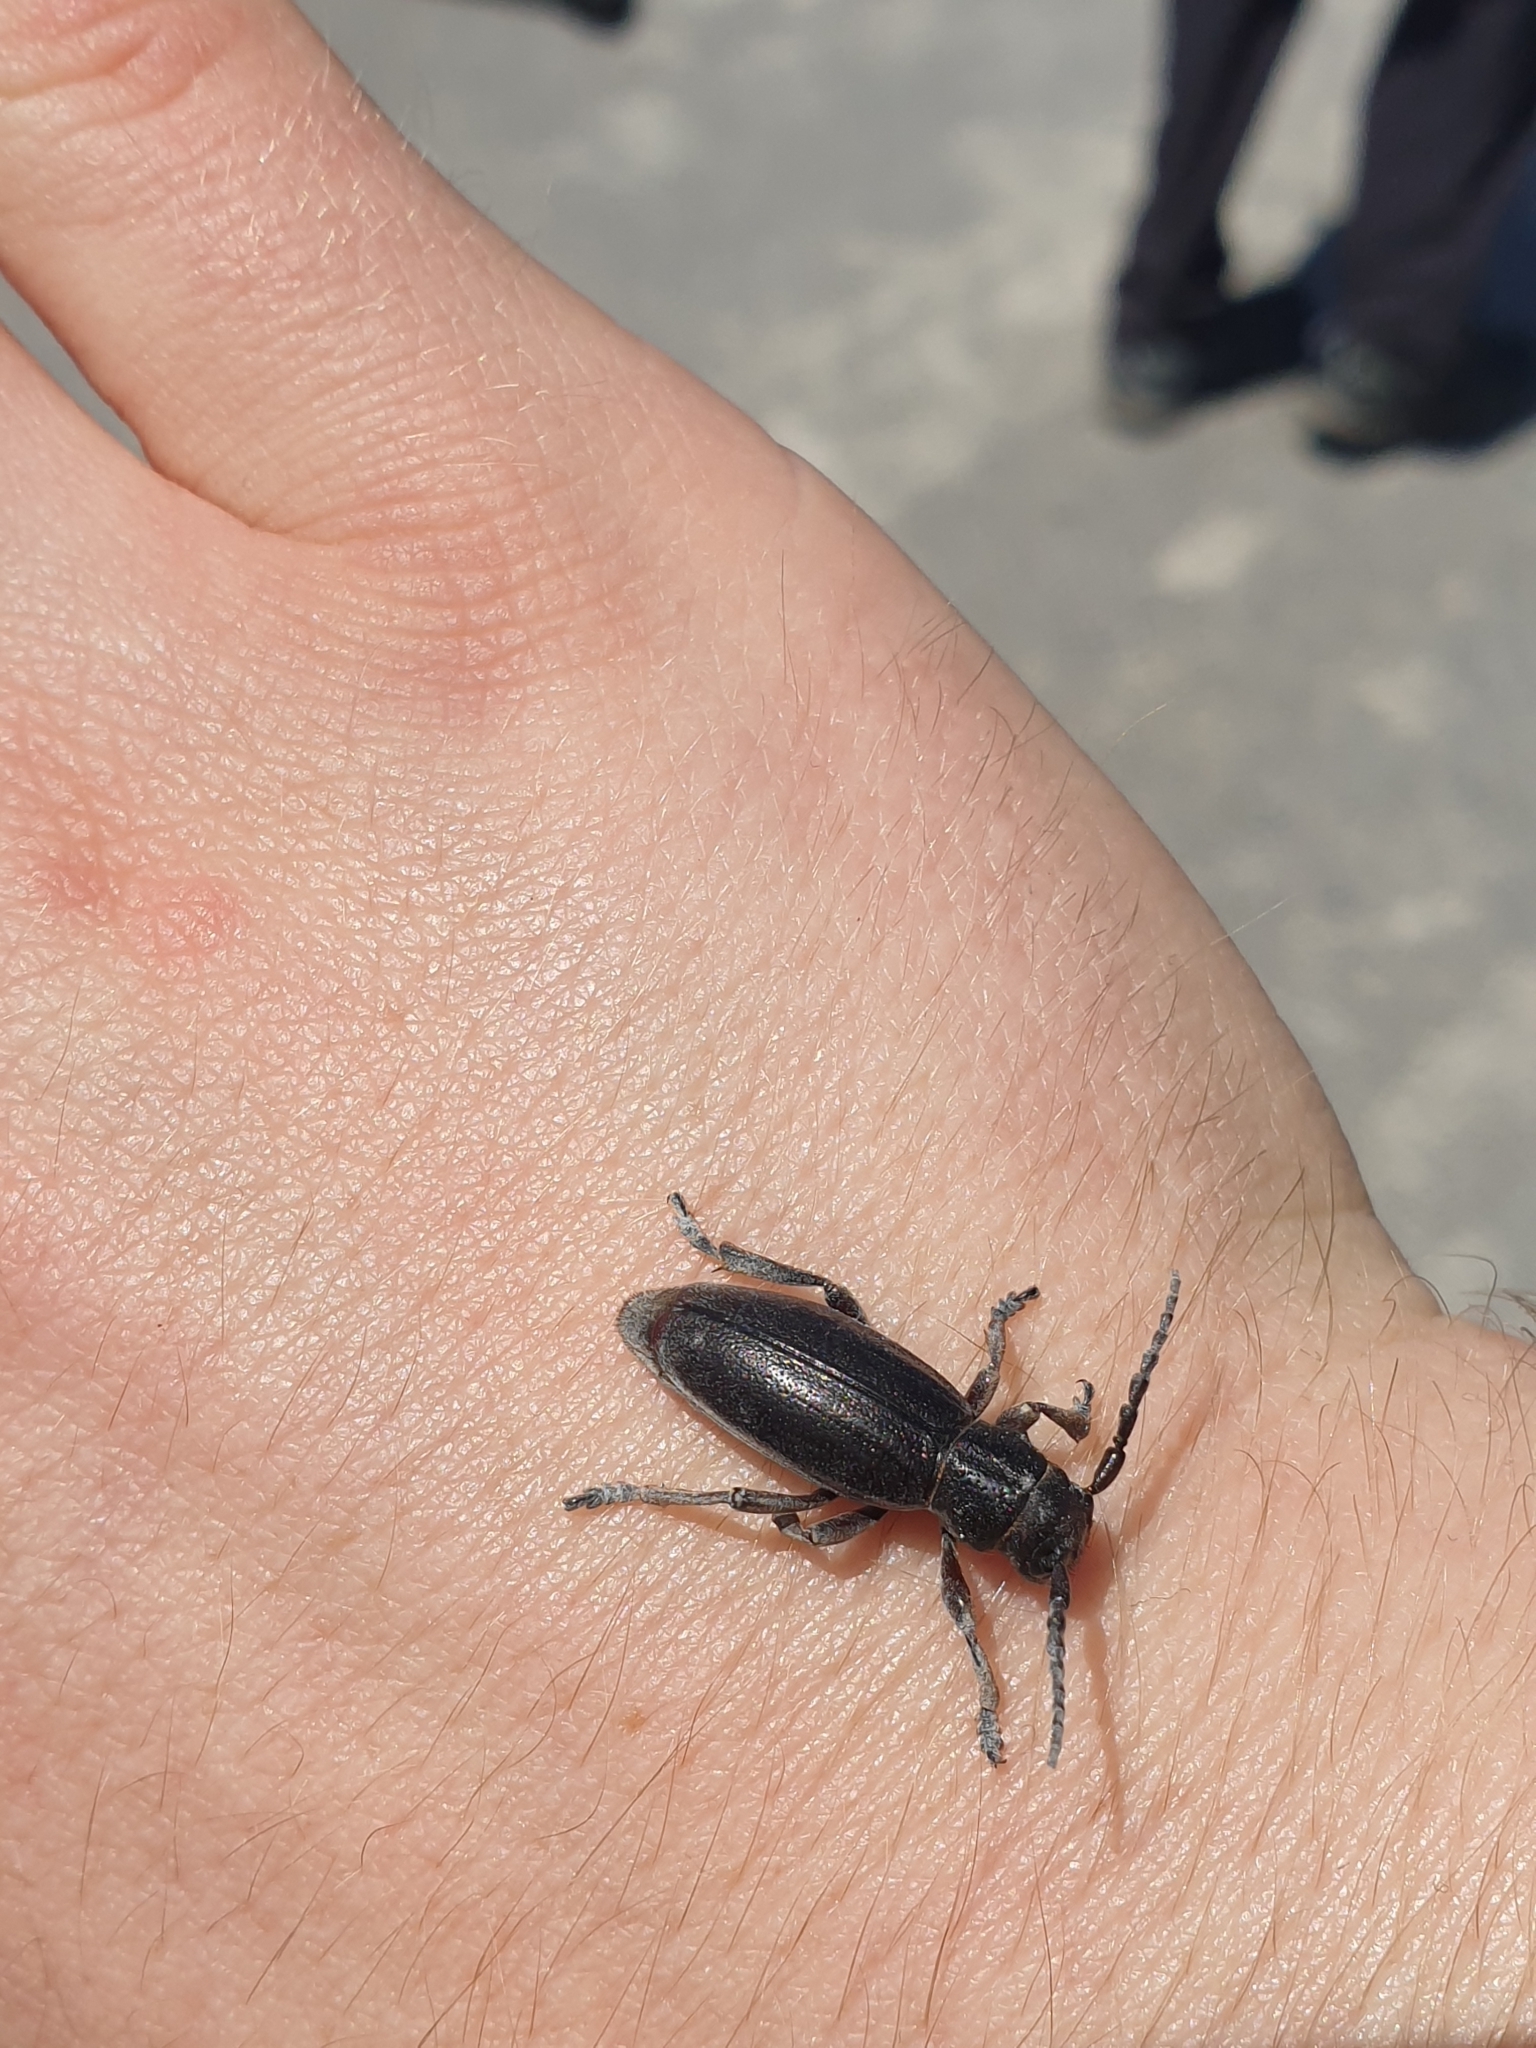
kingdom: Animalia
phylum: Arthropoda
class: Insecta
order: Coleoptera
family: Cerambycidae
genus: Dorcadion
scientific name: Dorcadion fulvum
